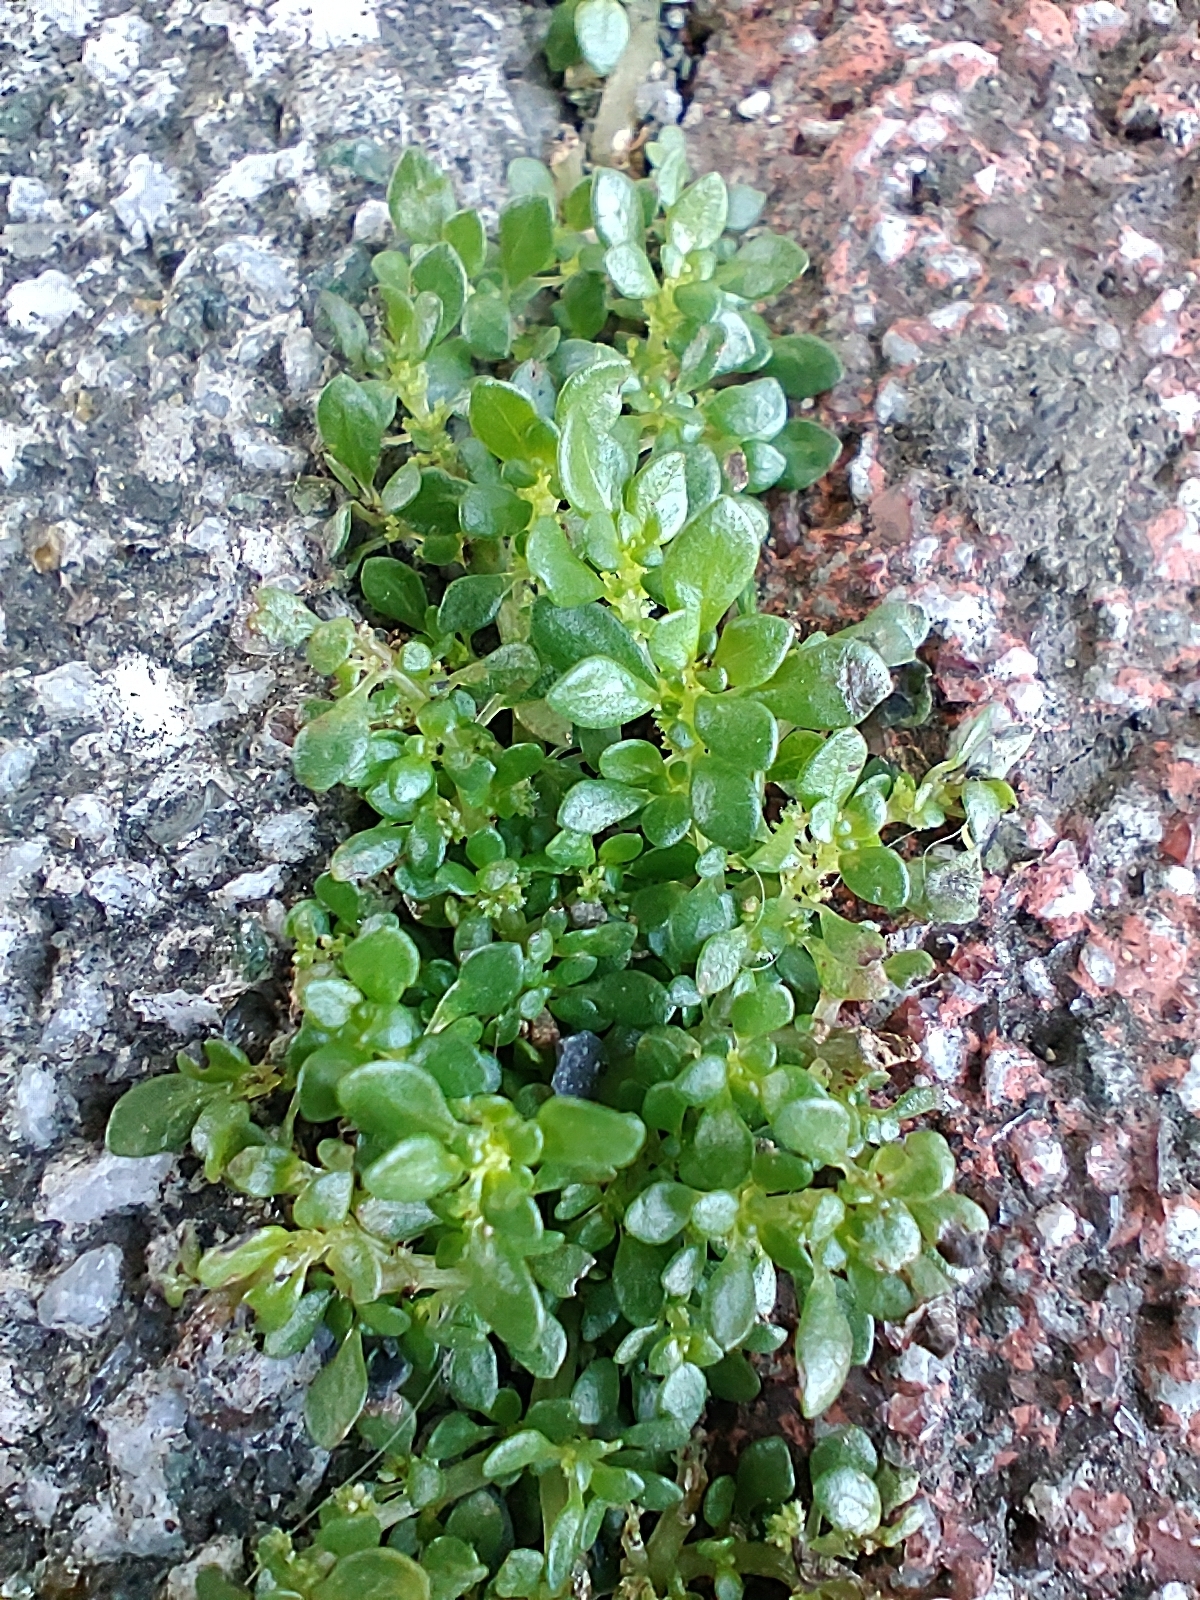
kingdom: Plantae
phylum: Tracheophyta
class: Magnoliopsida
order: Rosales
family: Urticaceae
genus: Pilea
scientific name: Pilea microphylla
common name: Artillery-plant
